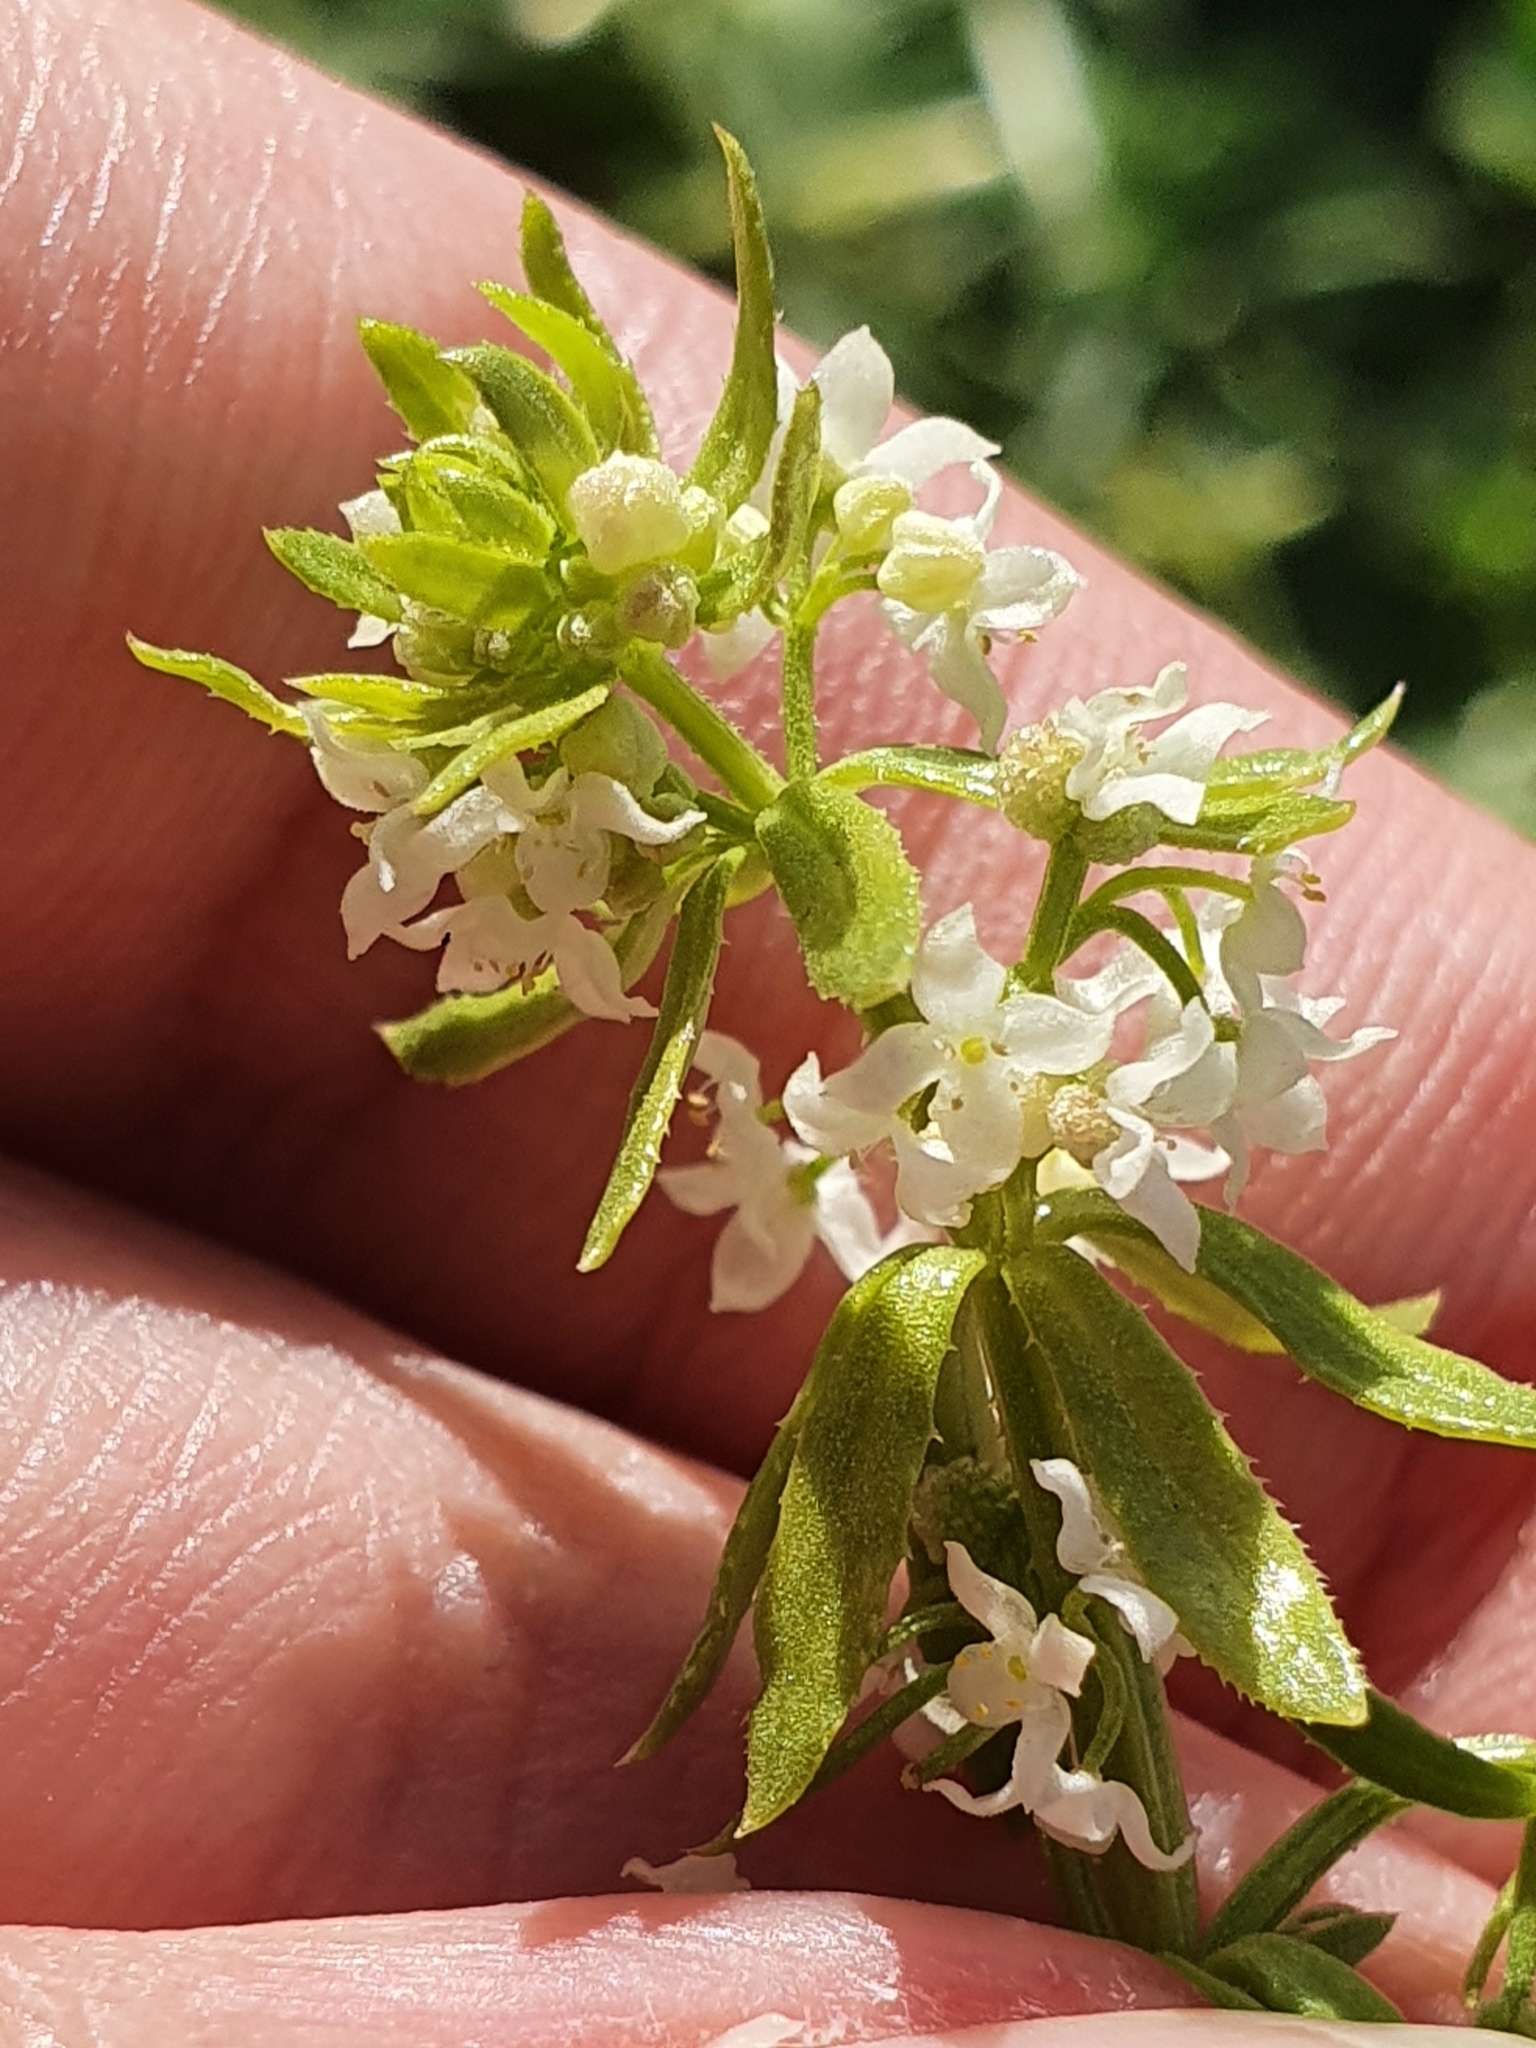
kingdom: Plantae
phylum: Tracheophyta
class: Magnoliopsida
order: Gentianales
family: Rubiaceae
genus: Galium
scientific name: Galium verrucosum
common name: Warty bedstraw
